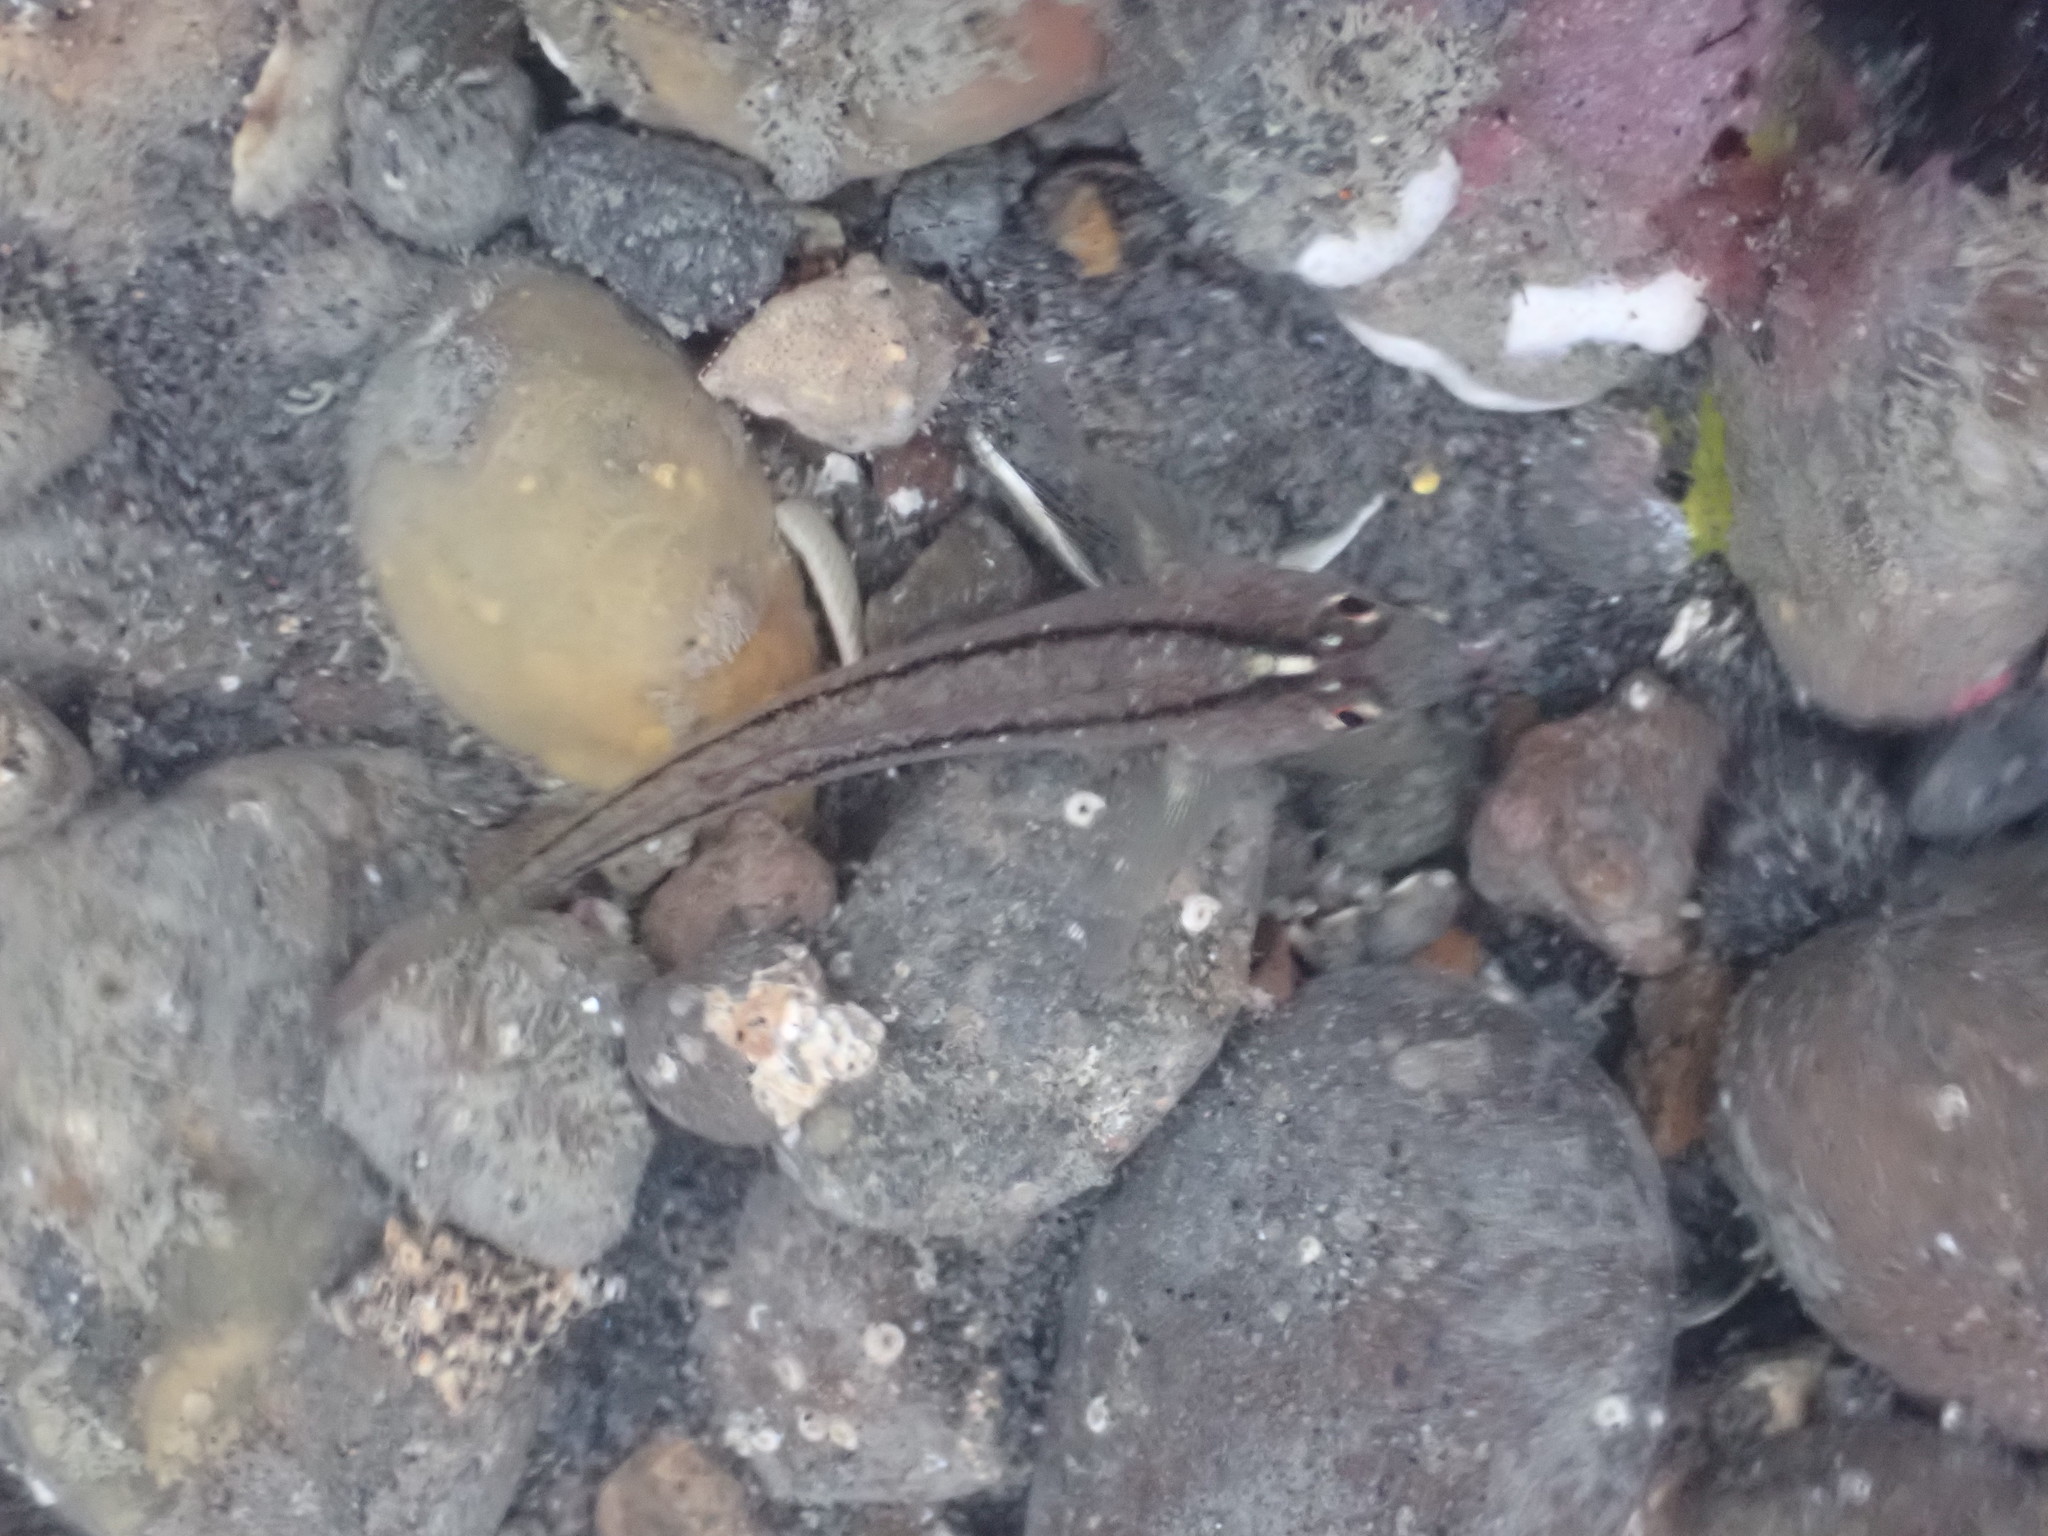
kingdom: Animalia
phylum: Chordata
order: Perciformes
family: Tripterygiidae
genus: Forsterygion
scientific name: Forsterygion lapillum
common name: Common triplefin
